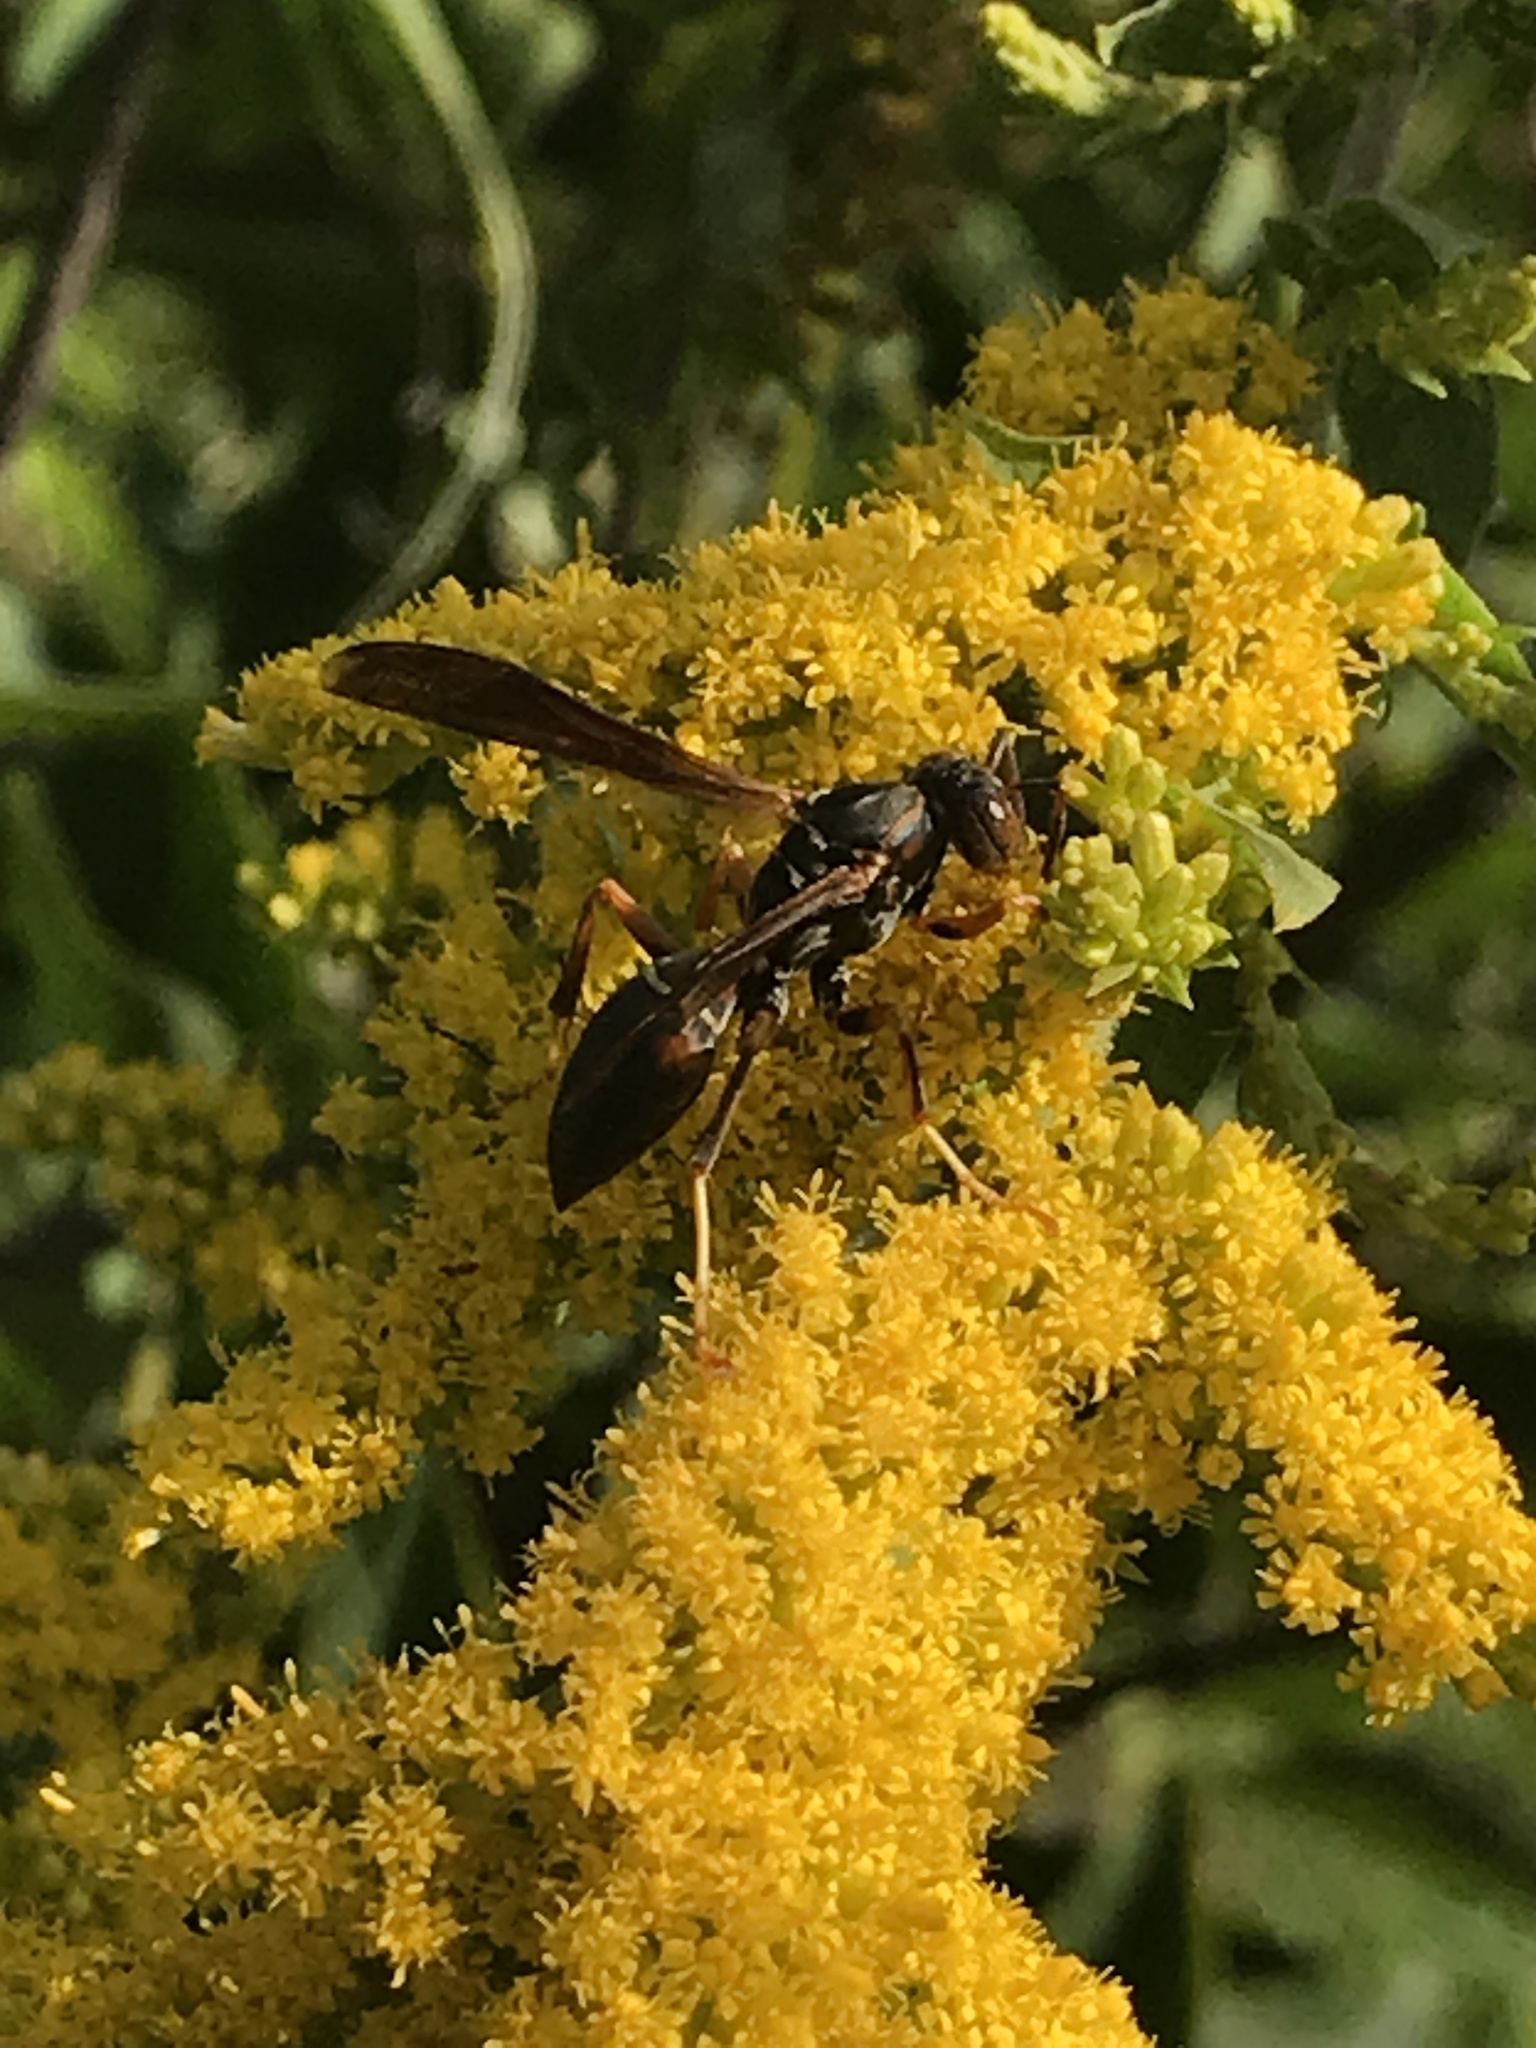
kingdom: Animalia
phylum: Arthropoda
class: Insecta
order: Hymenoptera
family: Eumenidae
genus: Polistes
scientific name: Polistes fuscatus
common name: Dark paper wasp
